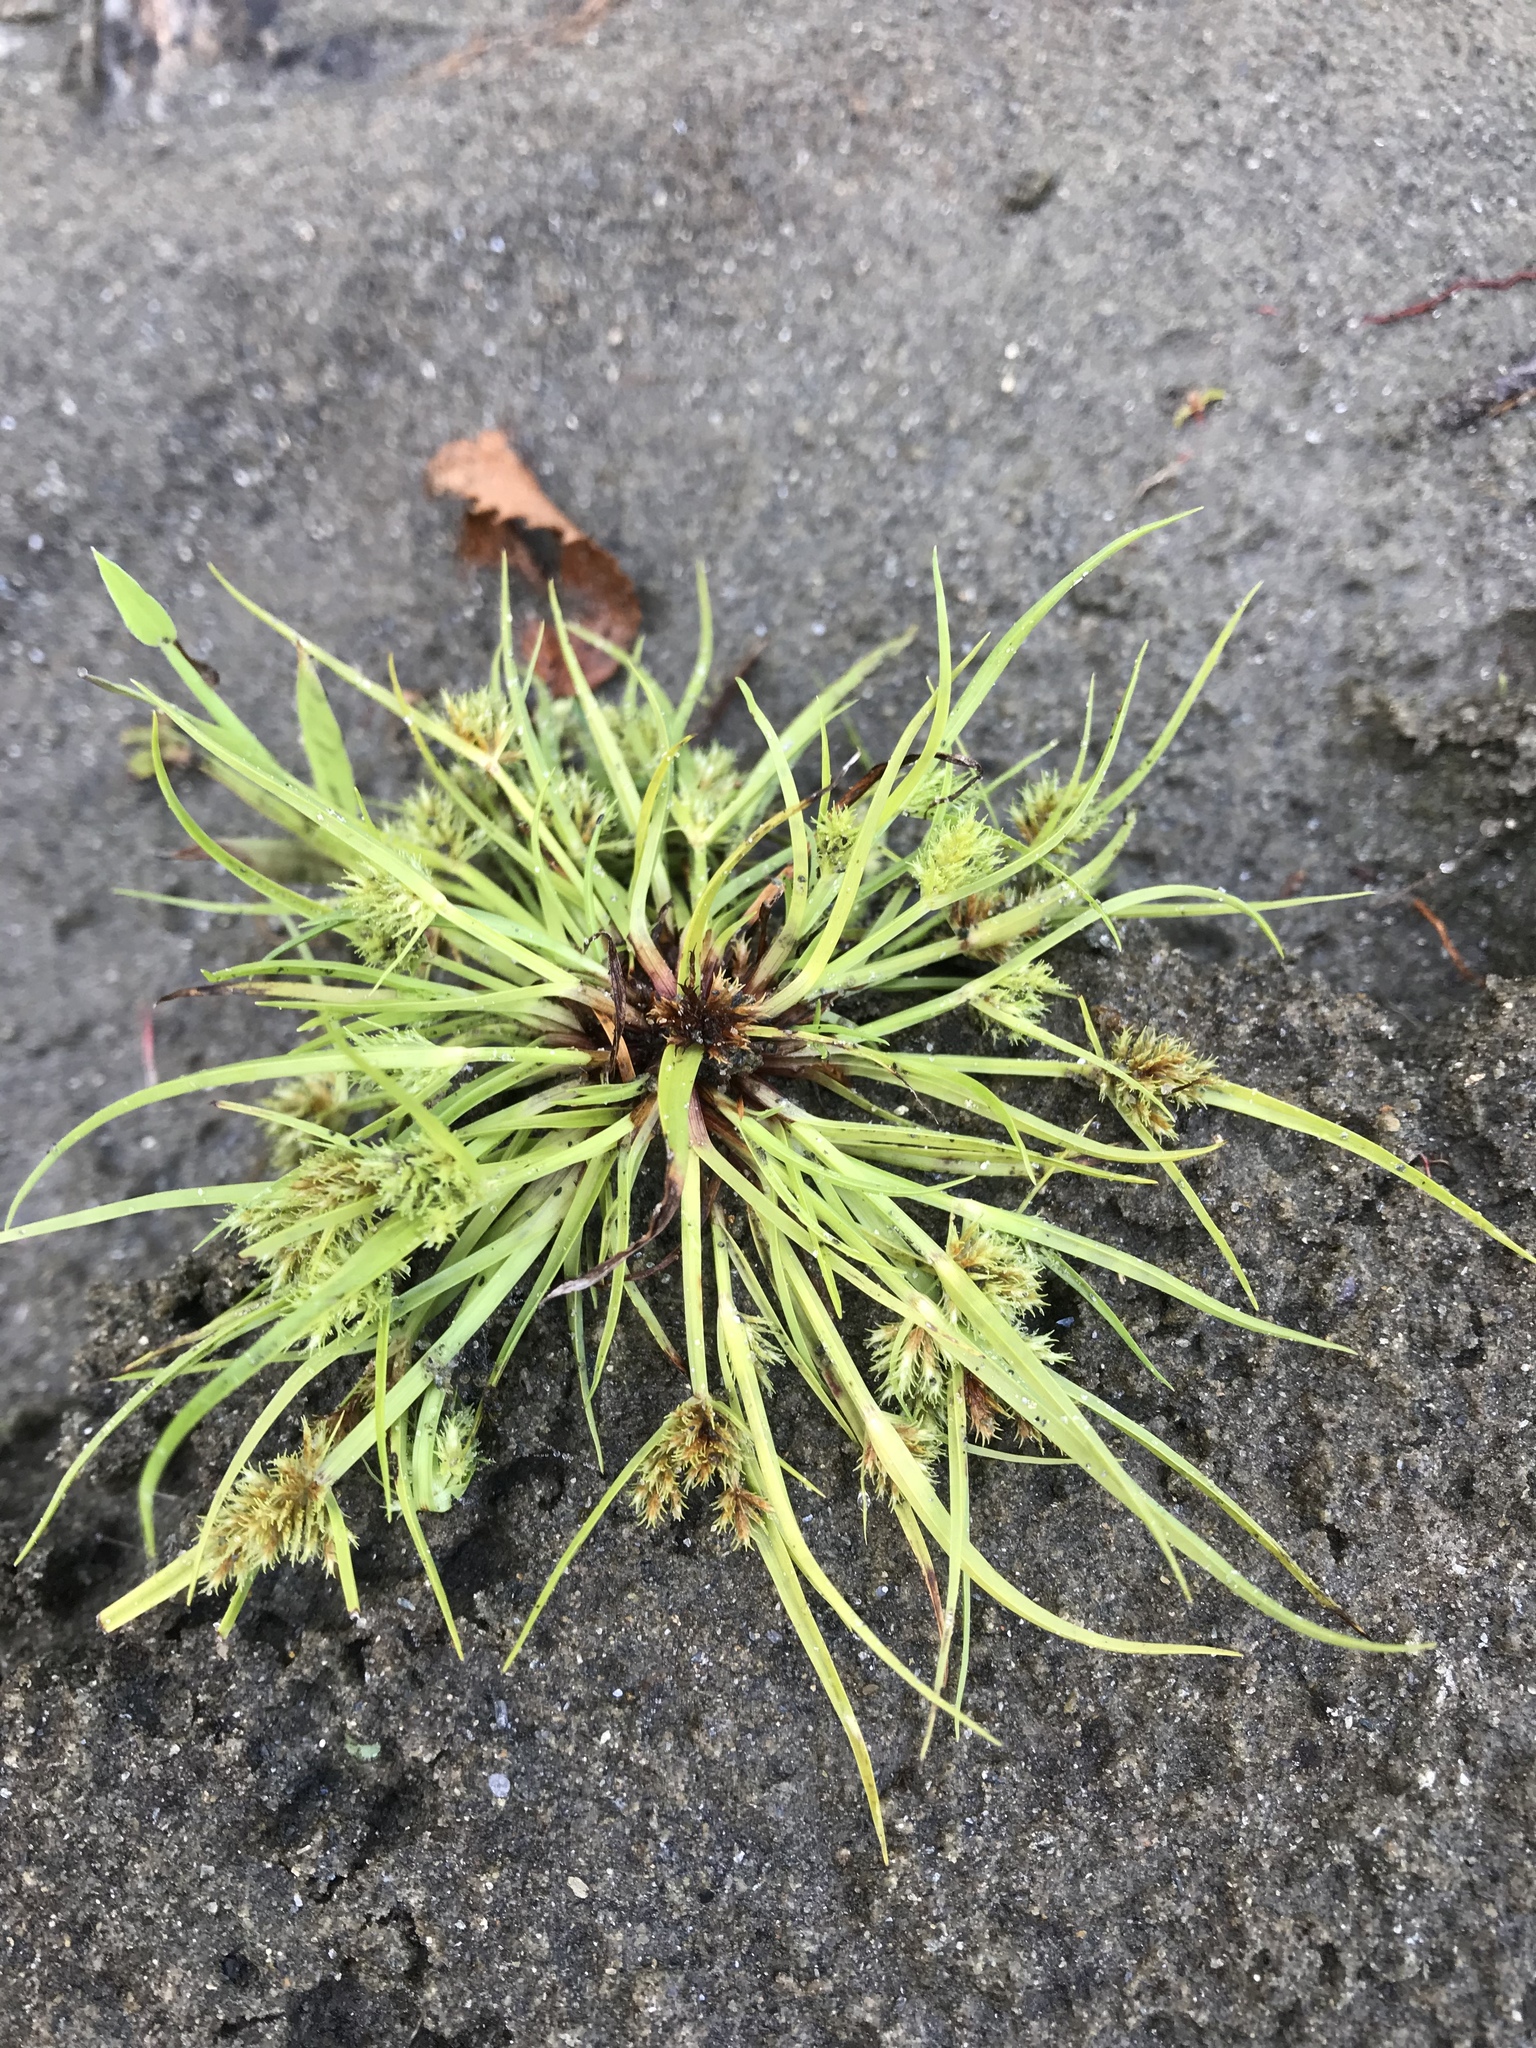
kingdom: Plantae
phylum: Tracheophyta
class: Liliopsida
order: Poales
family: Cyperaceae
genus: Cyperus
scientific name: Cyperus squarrosus
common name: Awned cyperus
